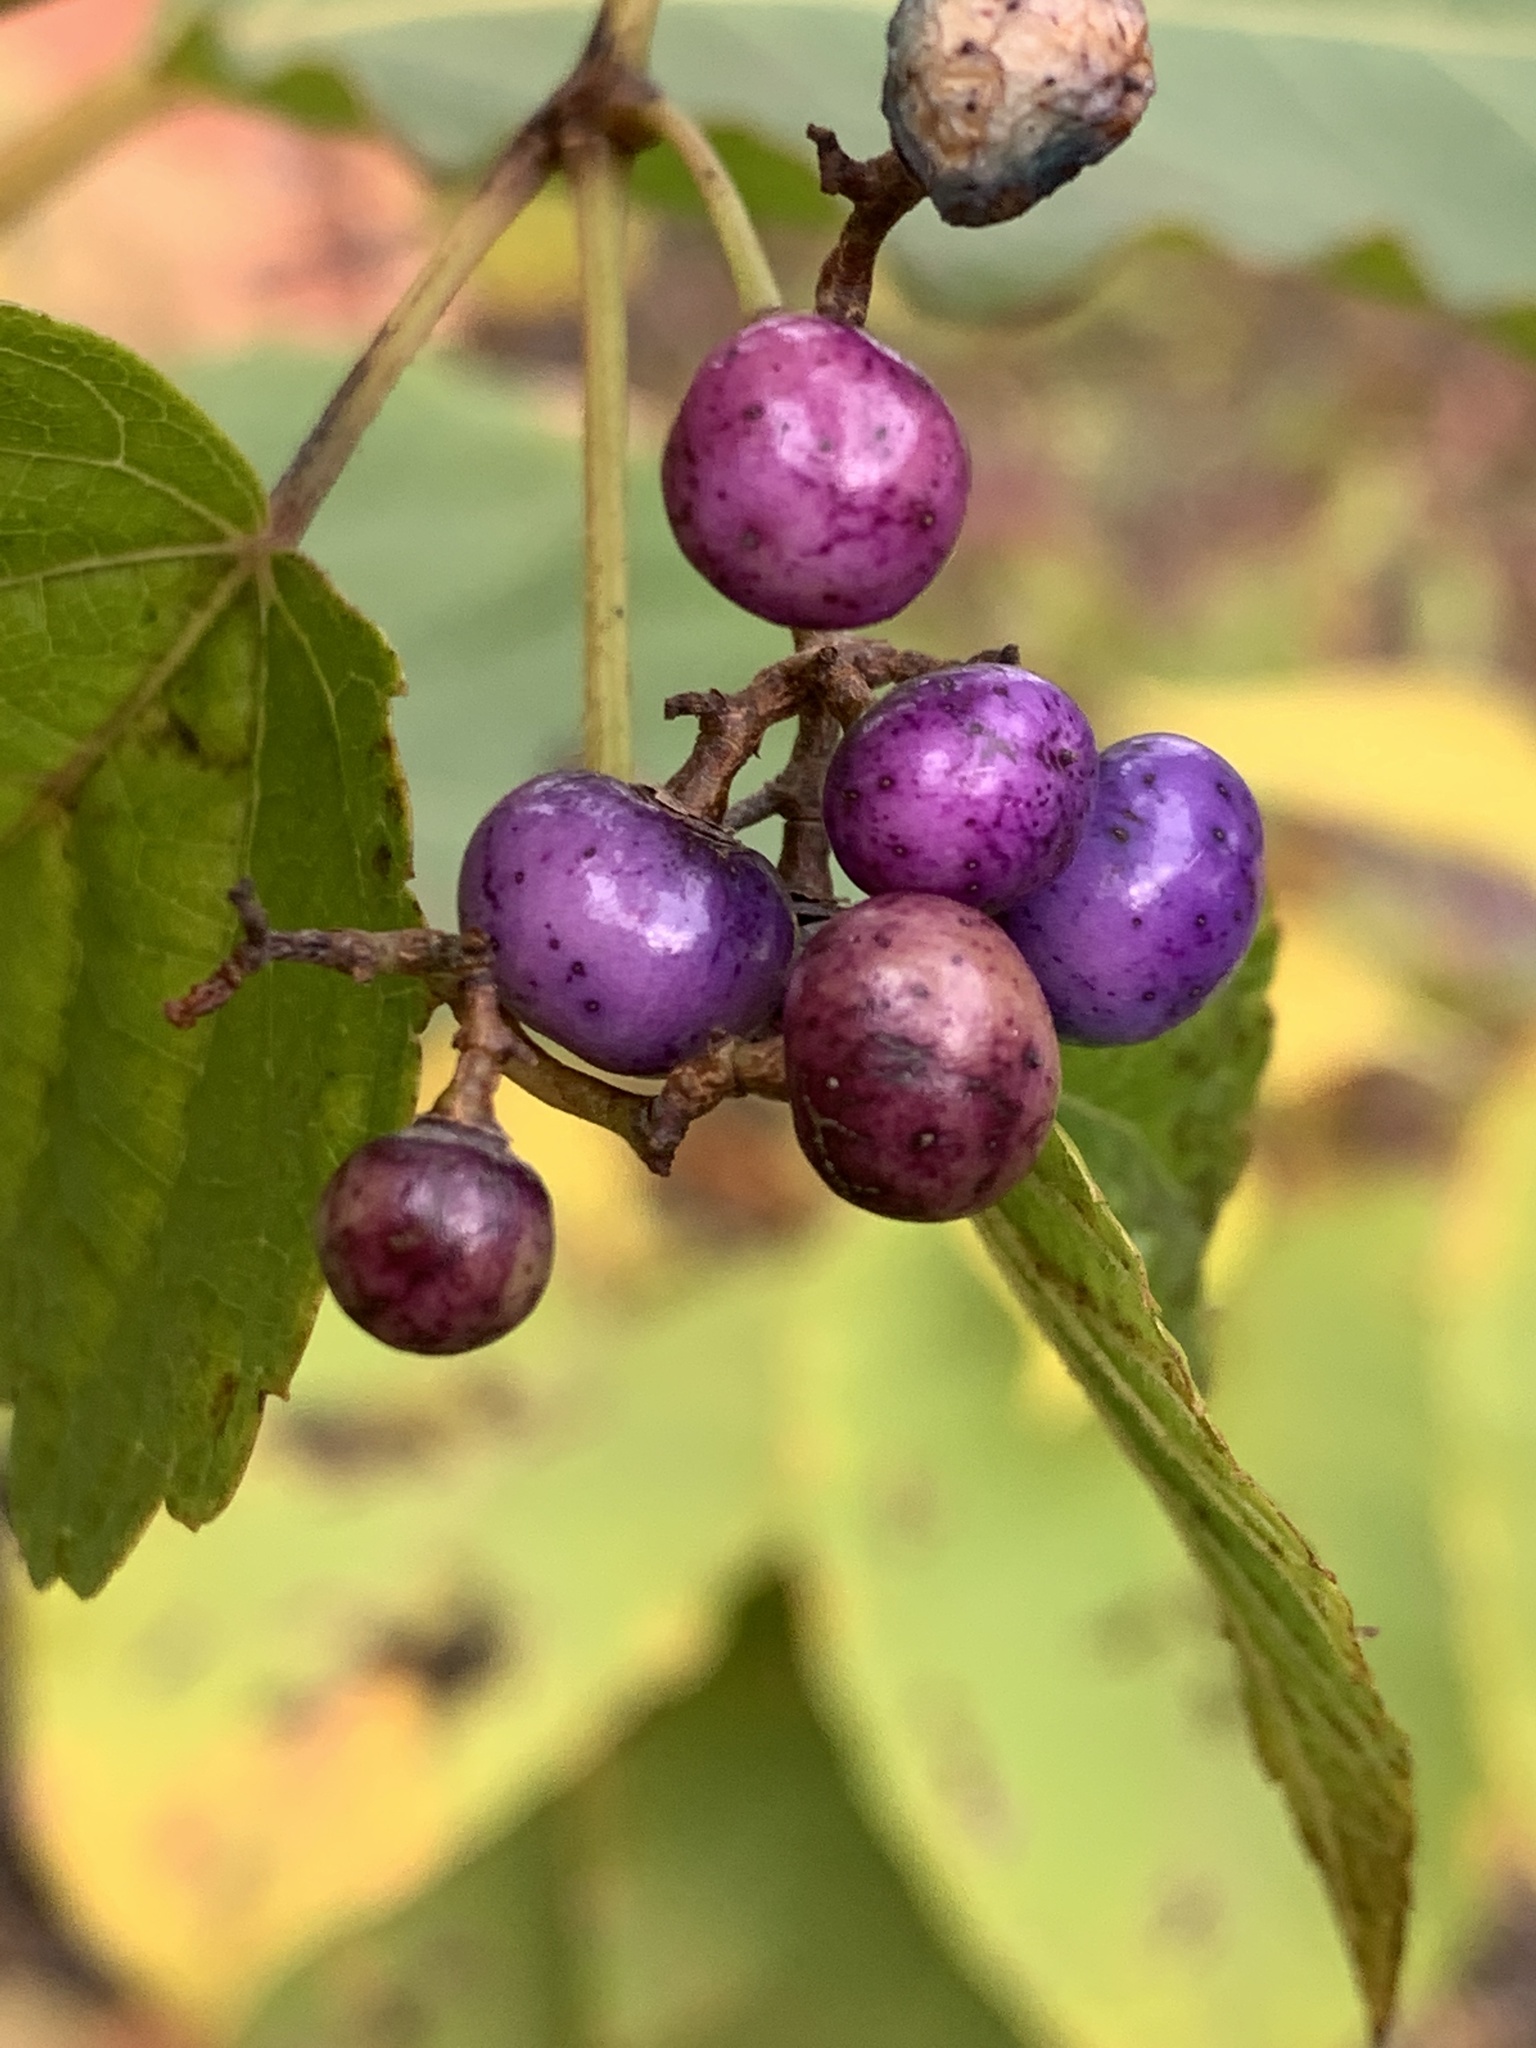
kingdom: Plantae
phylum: Tracheophyta
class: Magnoliopsida
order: Vitales
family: Vitaceae
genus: Ampelopsis
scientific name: Ampelopsis glandulosa
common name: Amur peppervine
